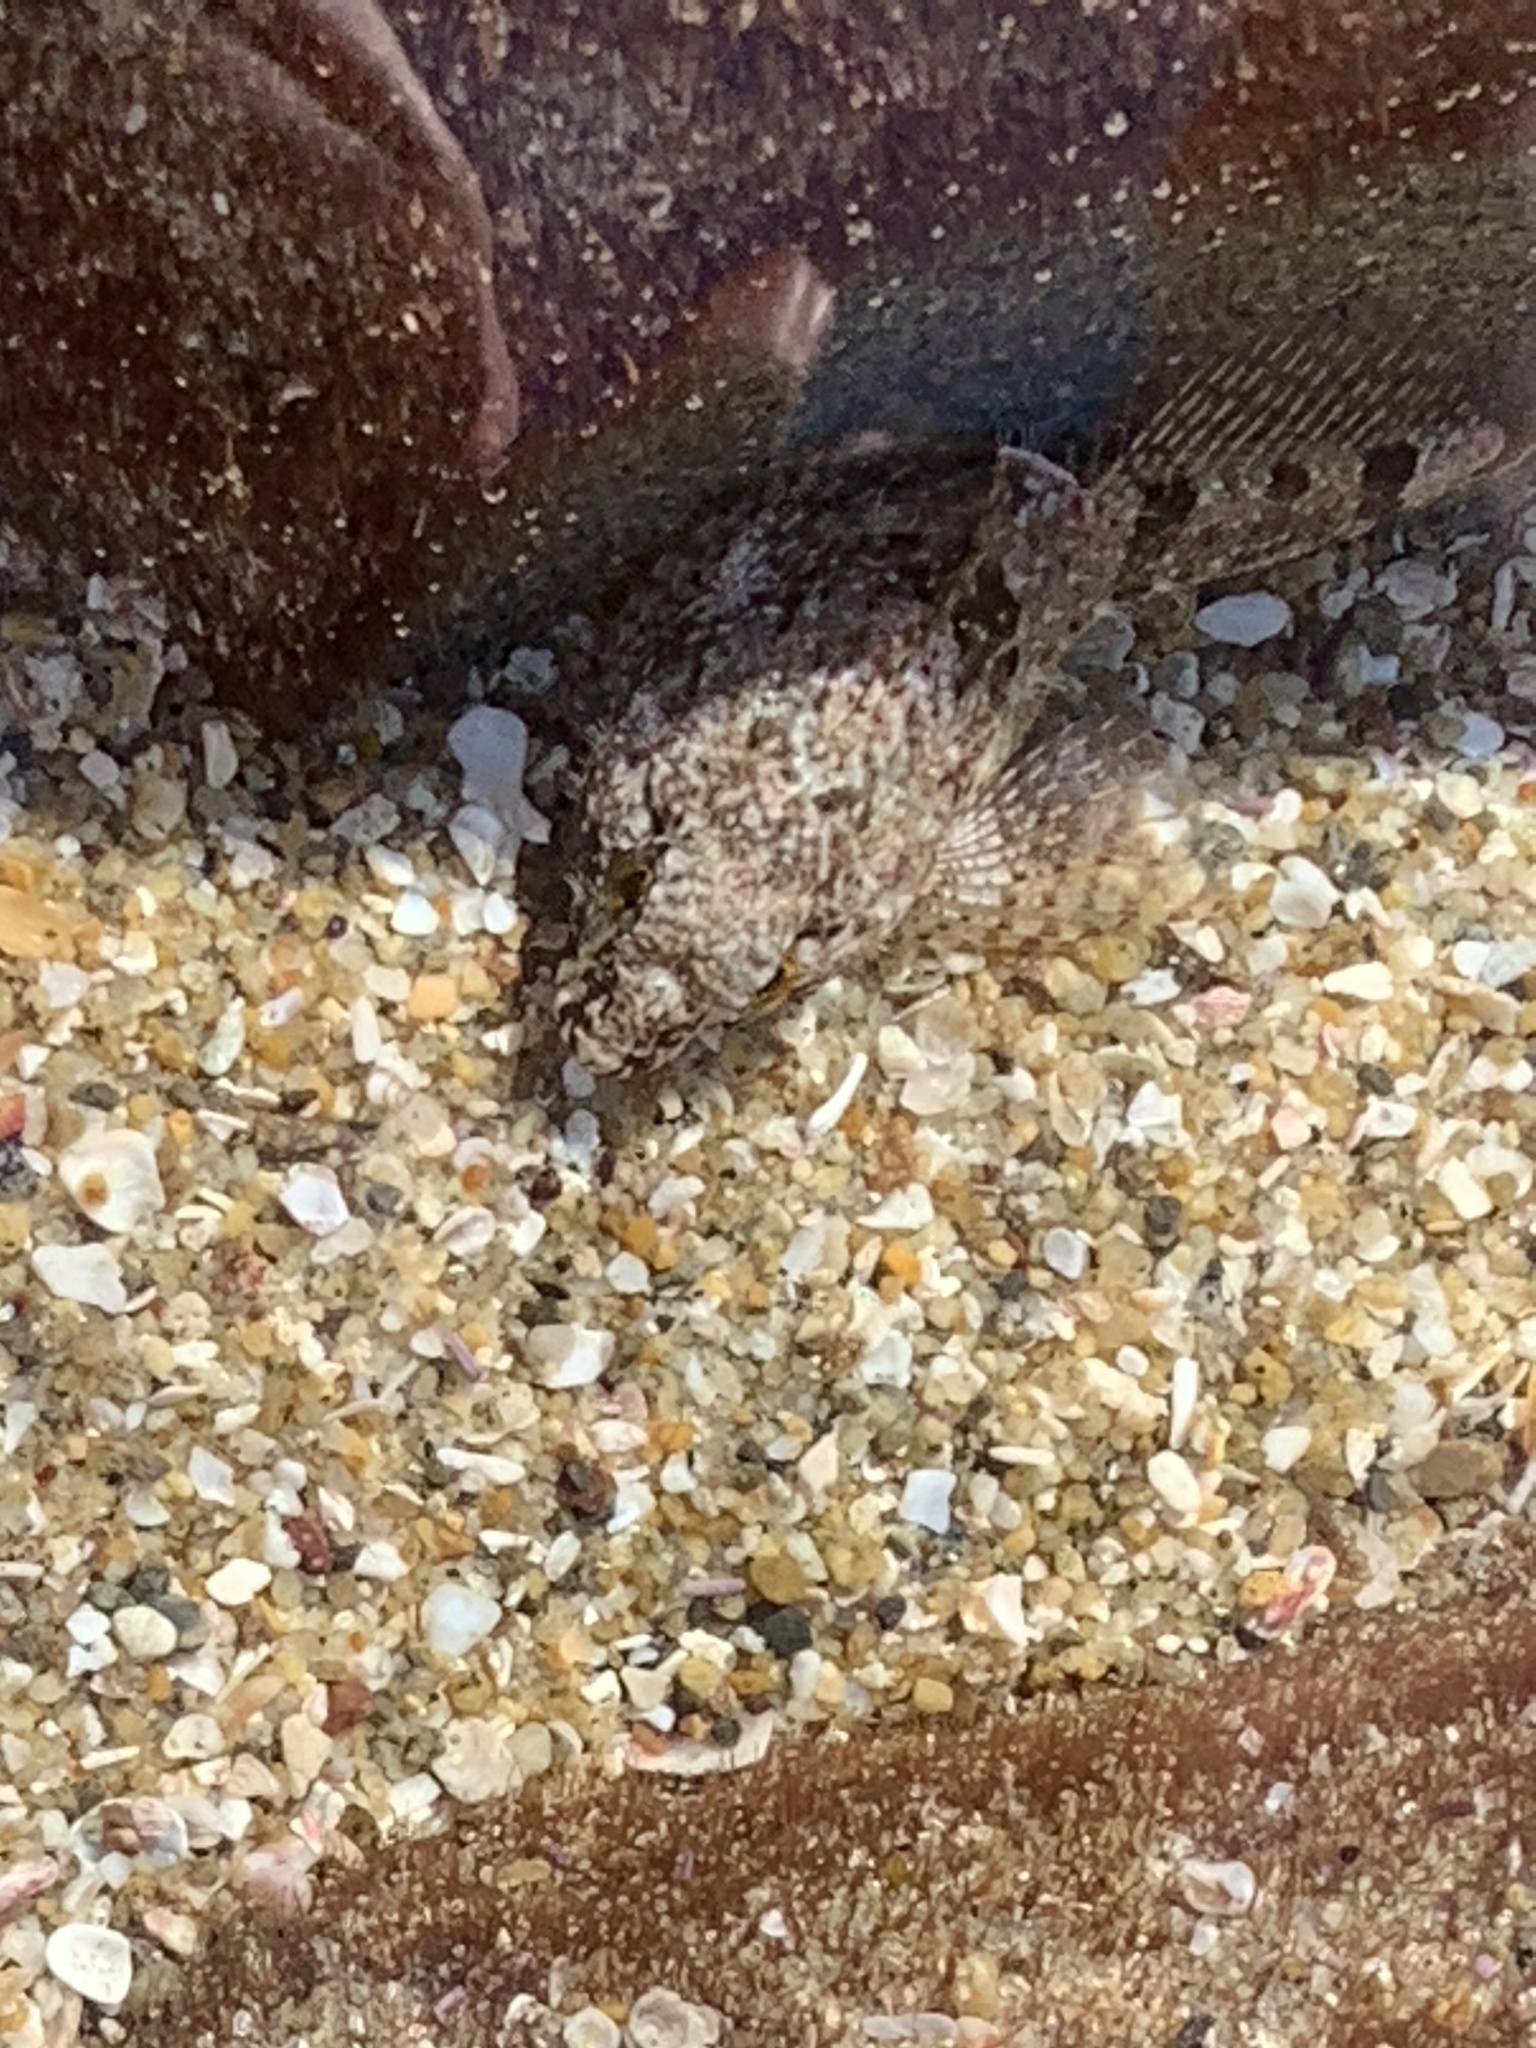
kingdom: Animalia
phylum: Chordata
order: Scorpaeniformes
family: Cottidae
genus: Clinocottus
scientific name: Clinocottus analis
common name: Woolly sculpin
